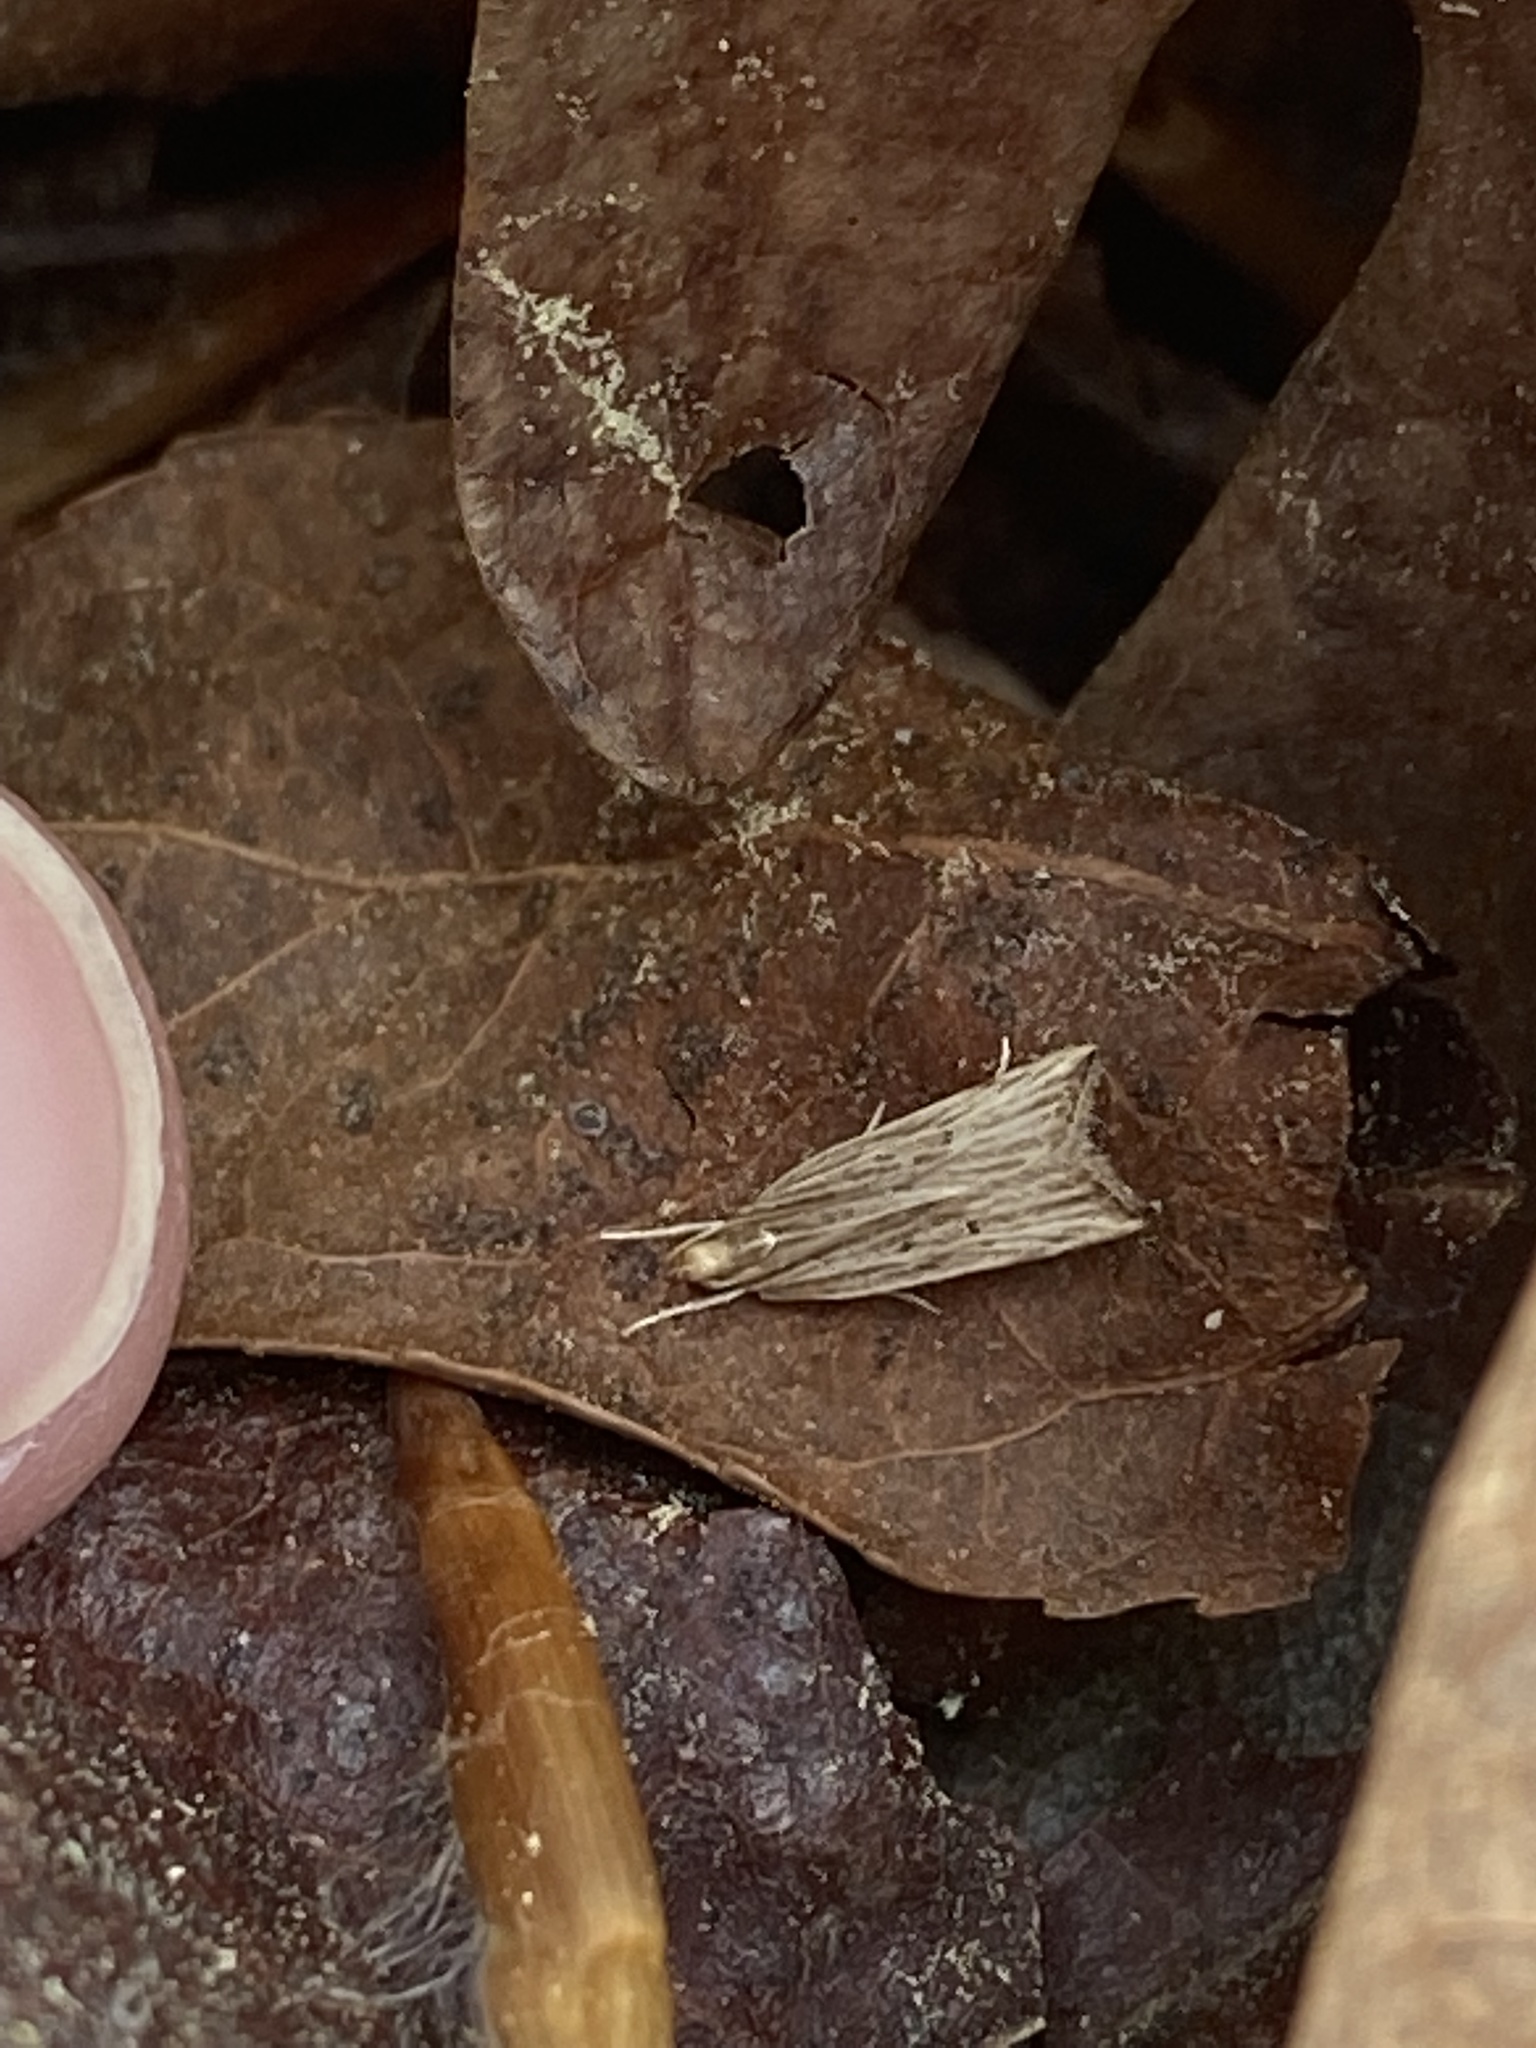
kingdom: Animalia
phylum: Arthropoda
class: Insecta
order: Lepidoptera
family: Gelechiidae
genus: Helcystogramma
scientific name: Helcystogramma hystricella
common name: Lanceolate moth
